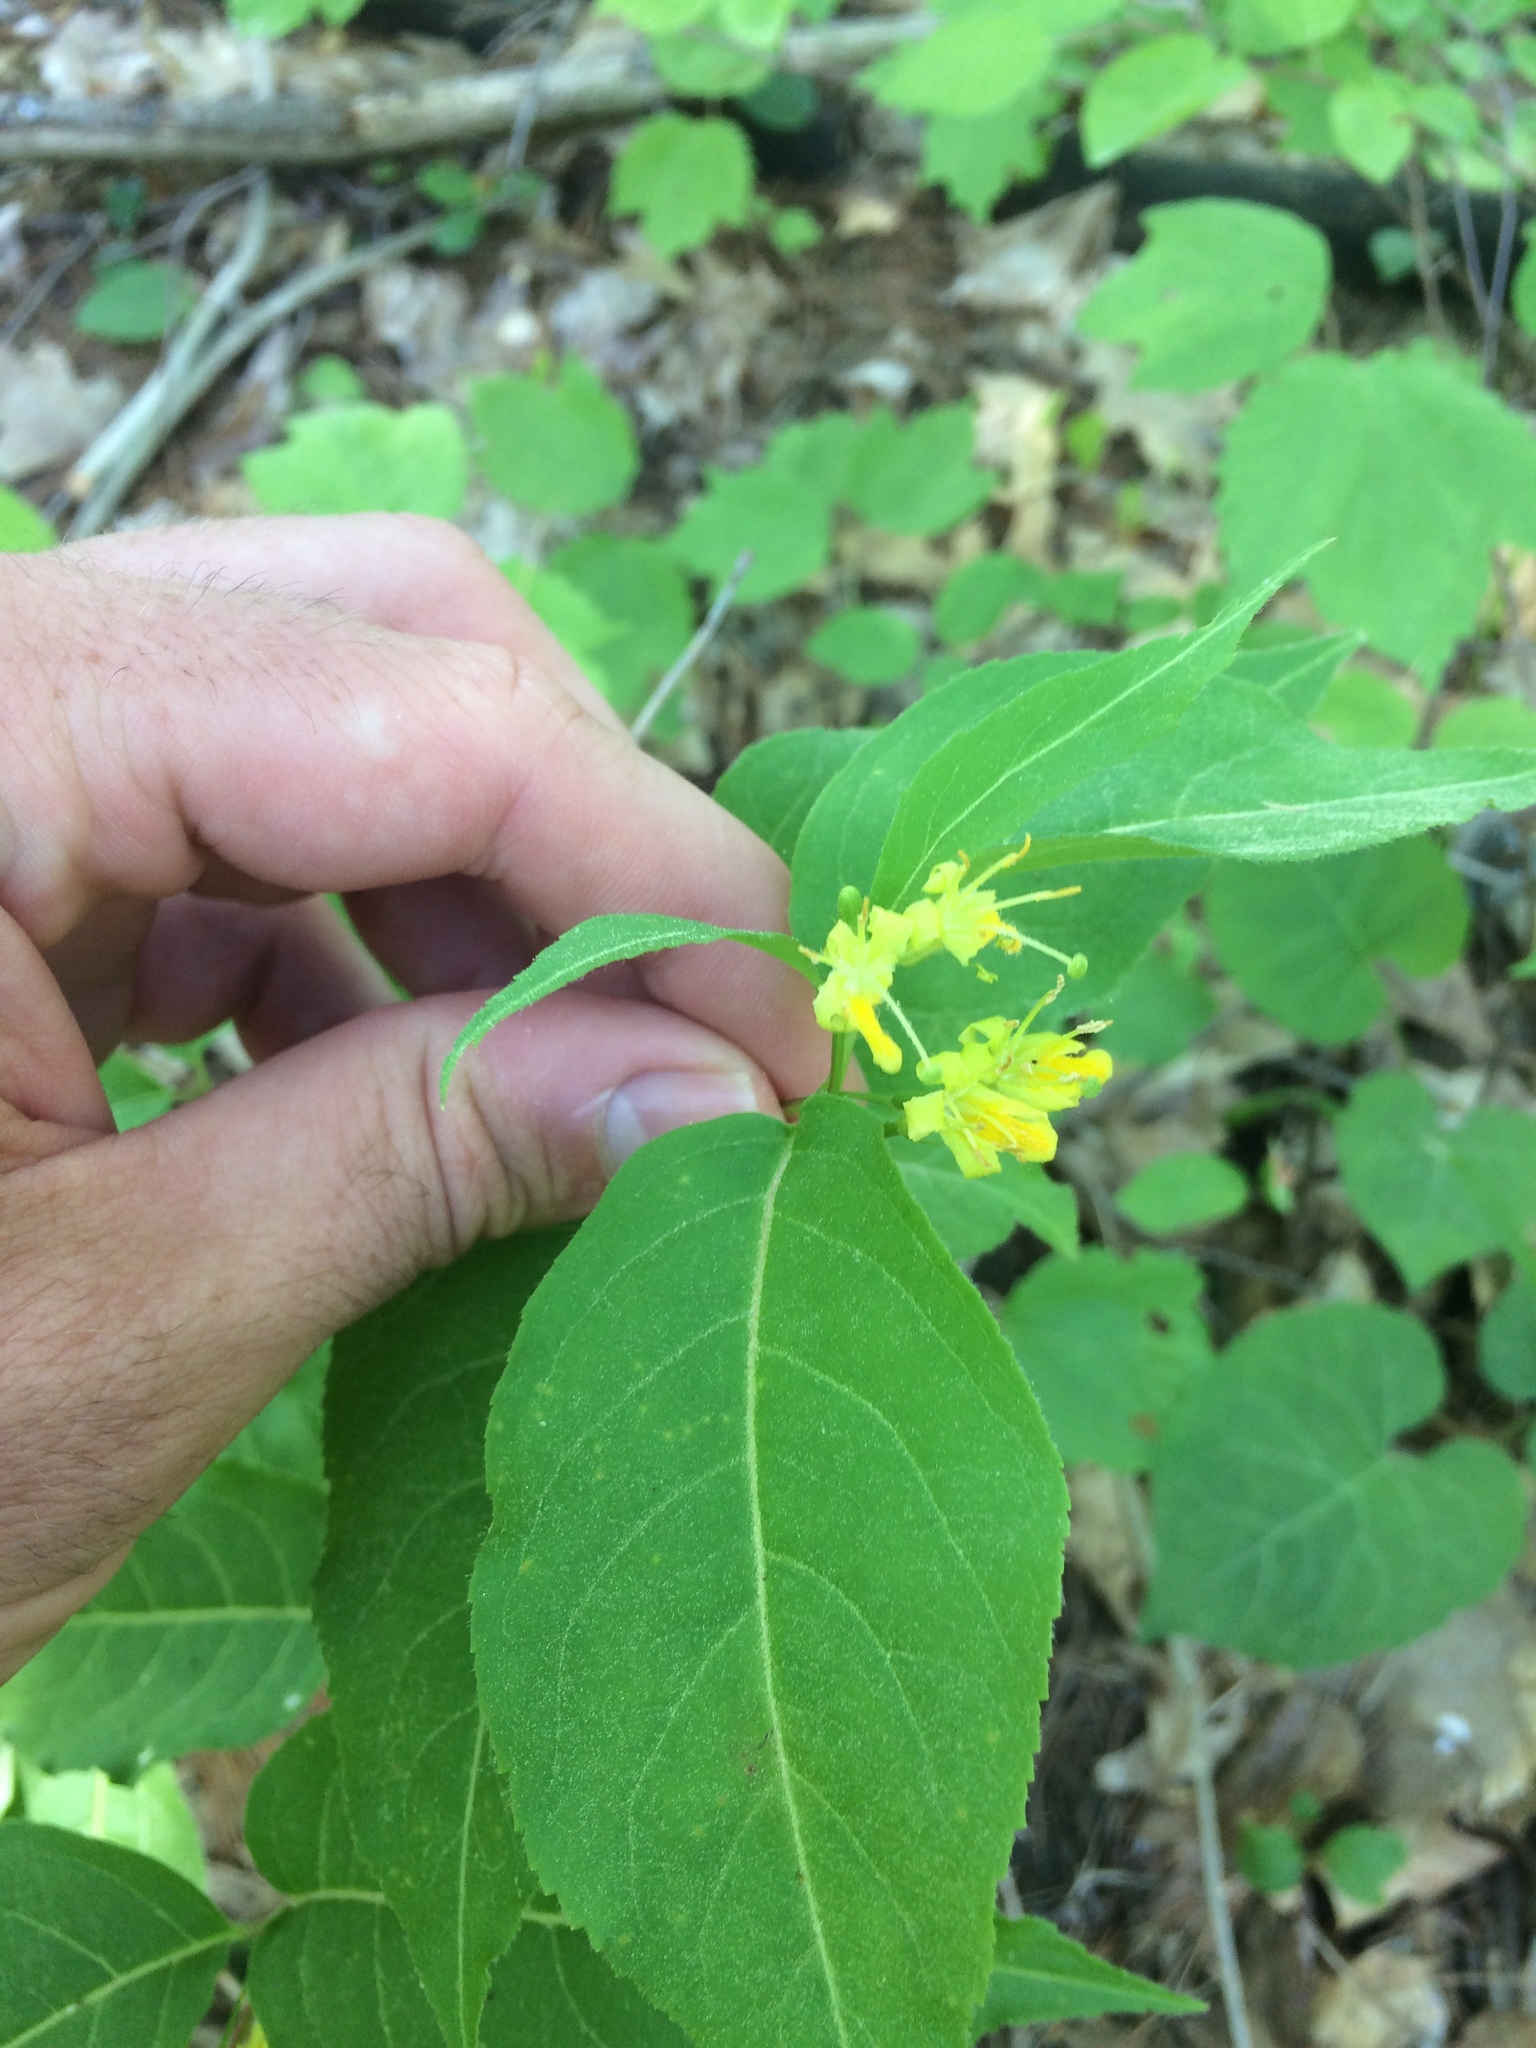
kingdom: Plantae
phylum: Tracheophyta
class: Magnoliopsida
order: Dipsacales
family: Caprifoliaceae
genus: Diervilla
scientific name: Diervilla lonicera
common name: Bush-honeysuckle
